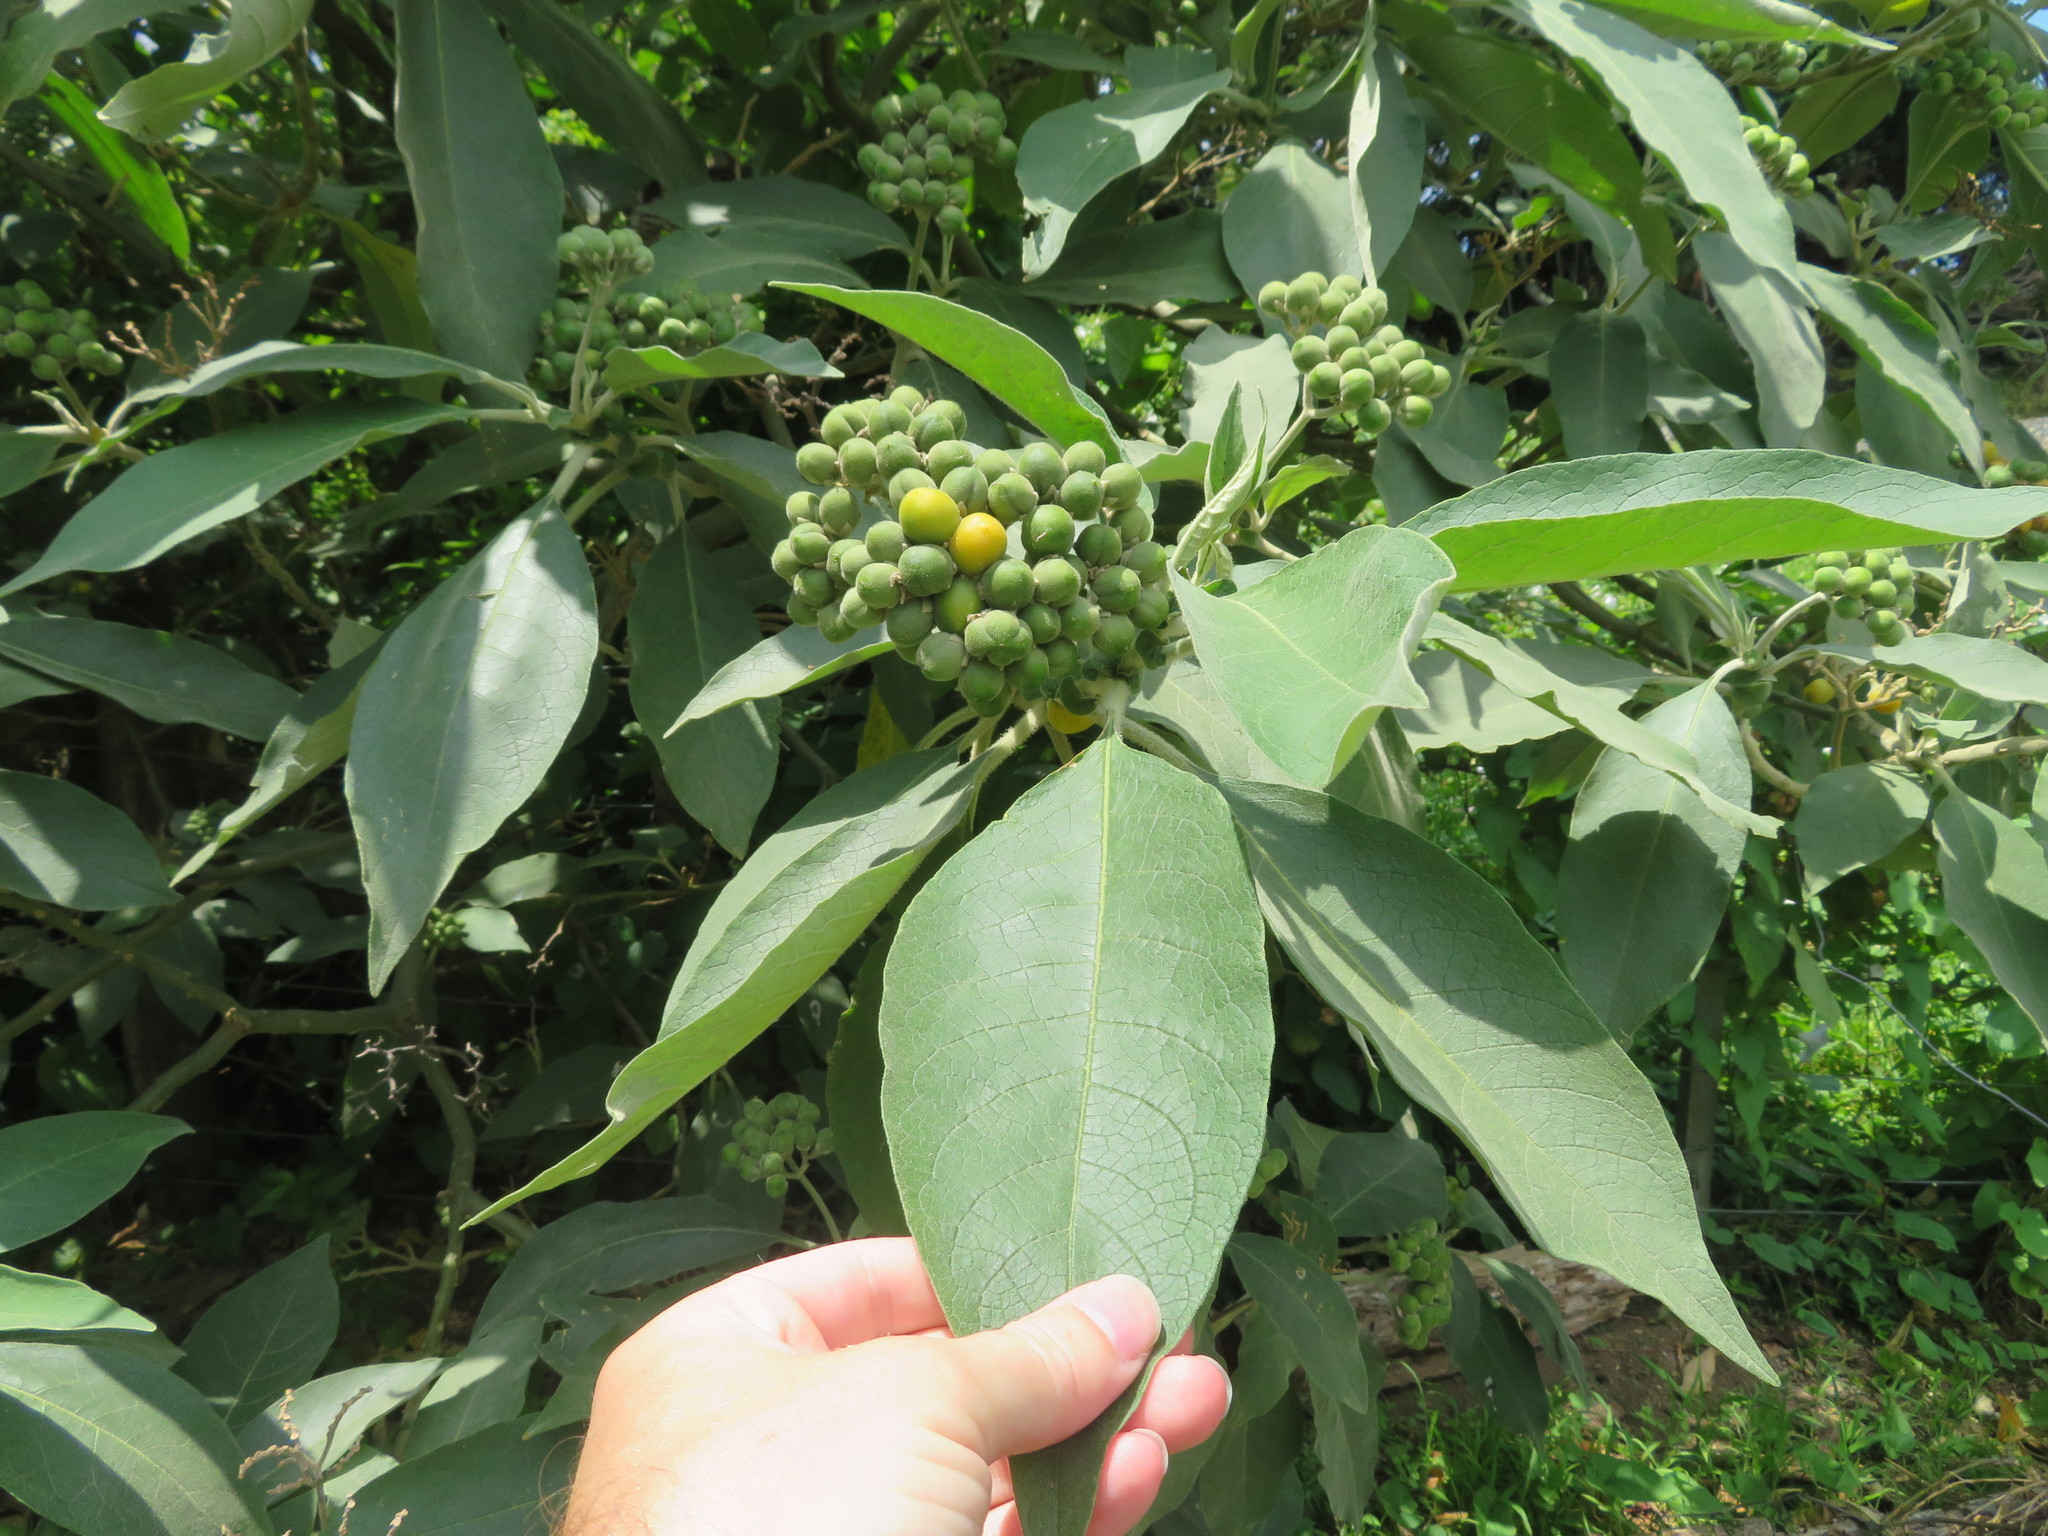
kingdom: Plantae
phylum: Tracheophyta
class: Magnoliopsida
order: Solanales
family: Solanaceae
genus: Solanum
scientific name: Solanum mauritianum
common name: Earleaf nightshade
